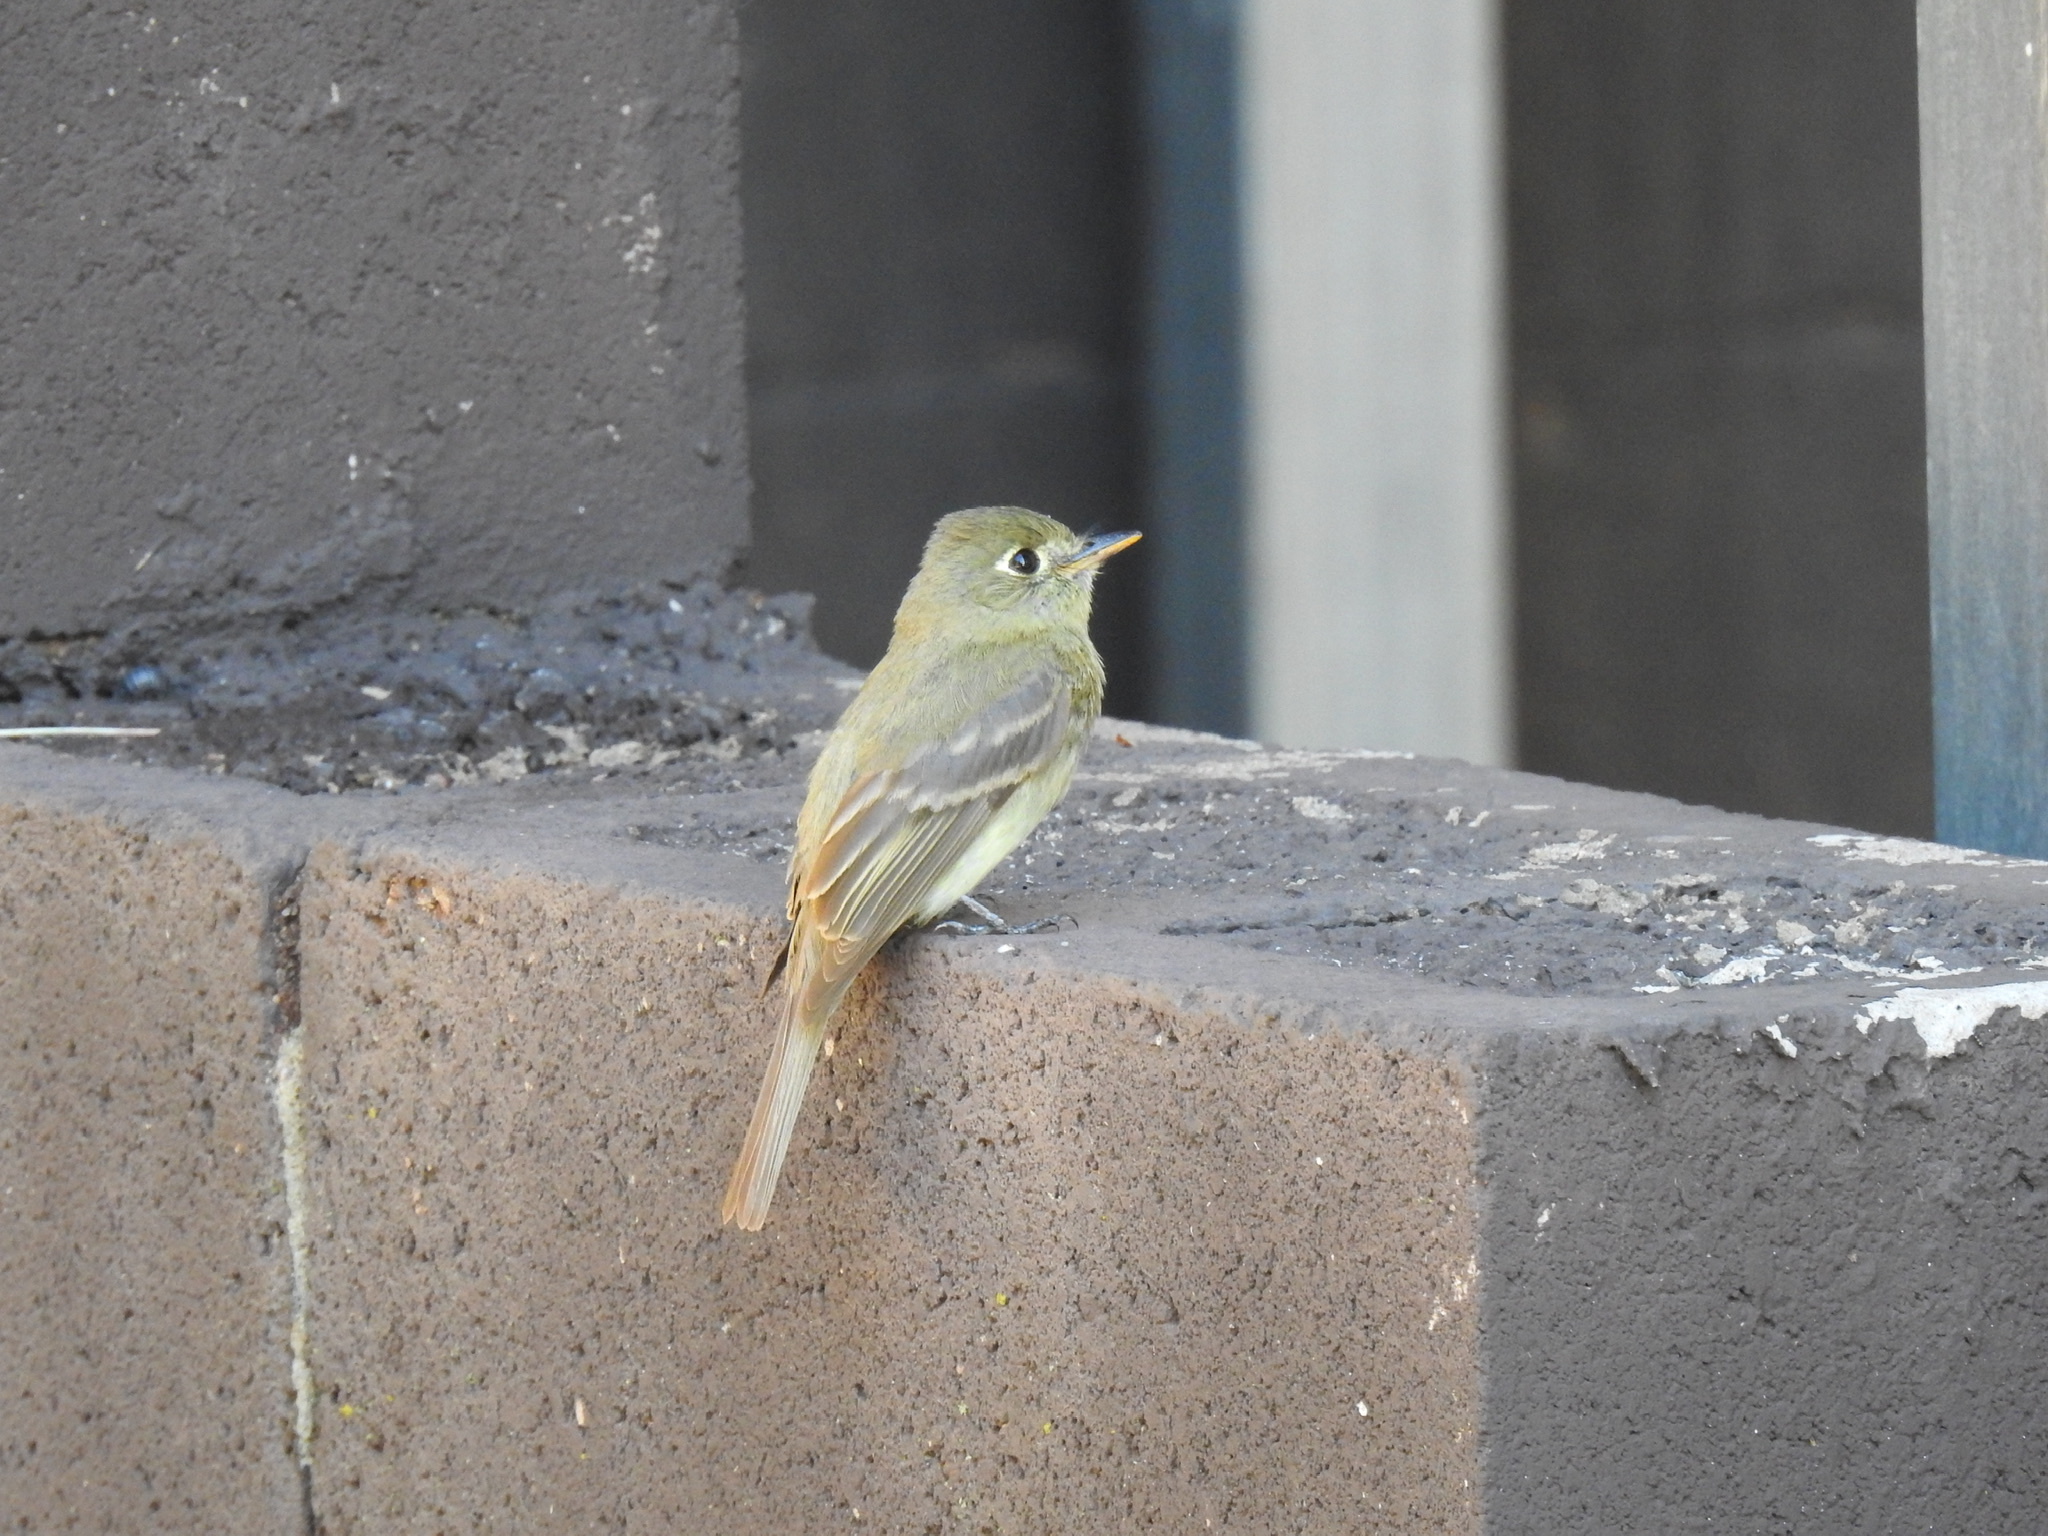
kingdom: Animalia
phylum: Chordata
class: Aves
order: Passeriformes
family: Tyrannidae
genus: Empidonax
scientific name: Empidonax difficilis
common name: Pacific-slope flycatcher
